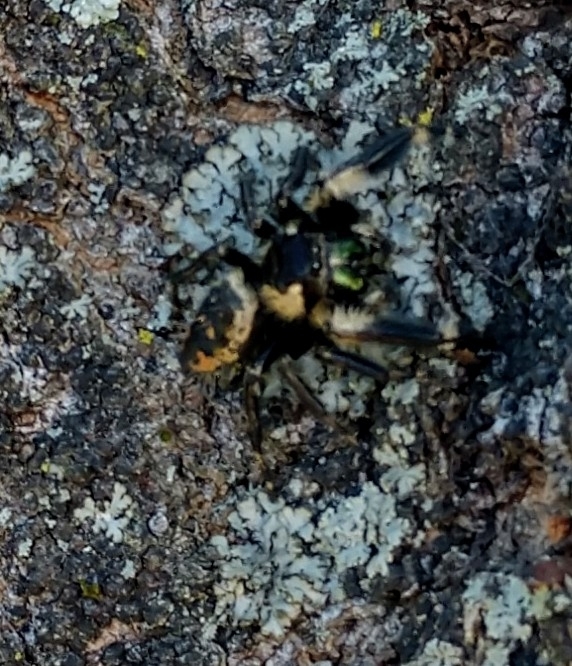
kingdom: Animalia
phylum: Arthropoda
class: Arachnida
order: Araneae
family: Salticidae
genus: Phidippus
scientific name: Phidippus otiosus
